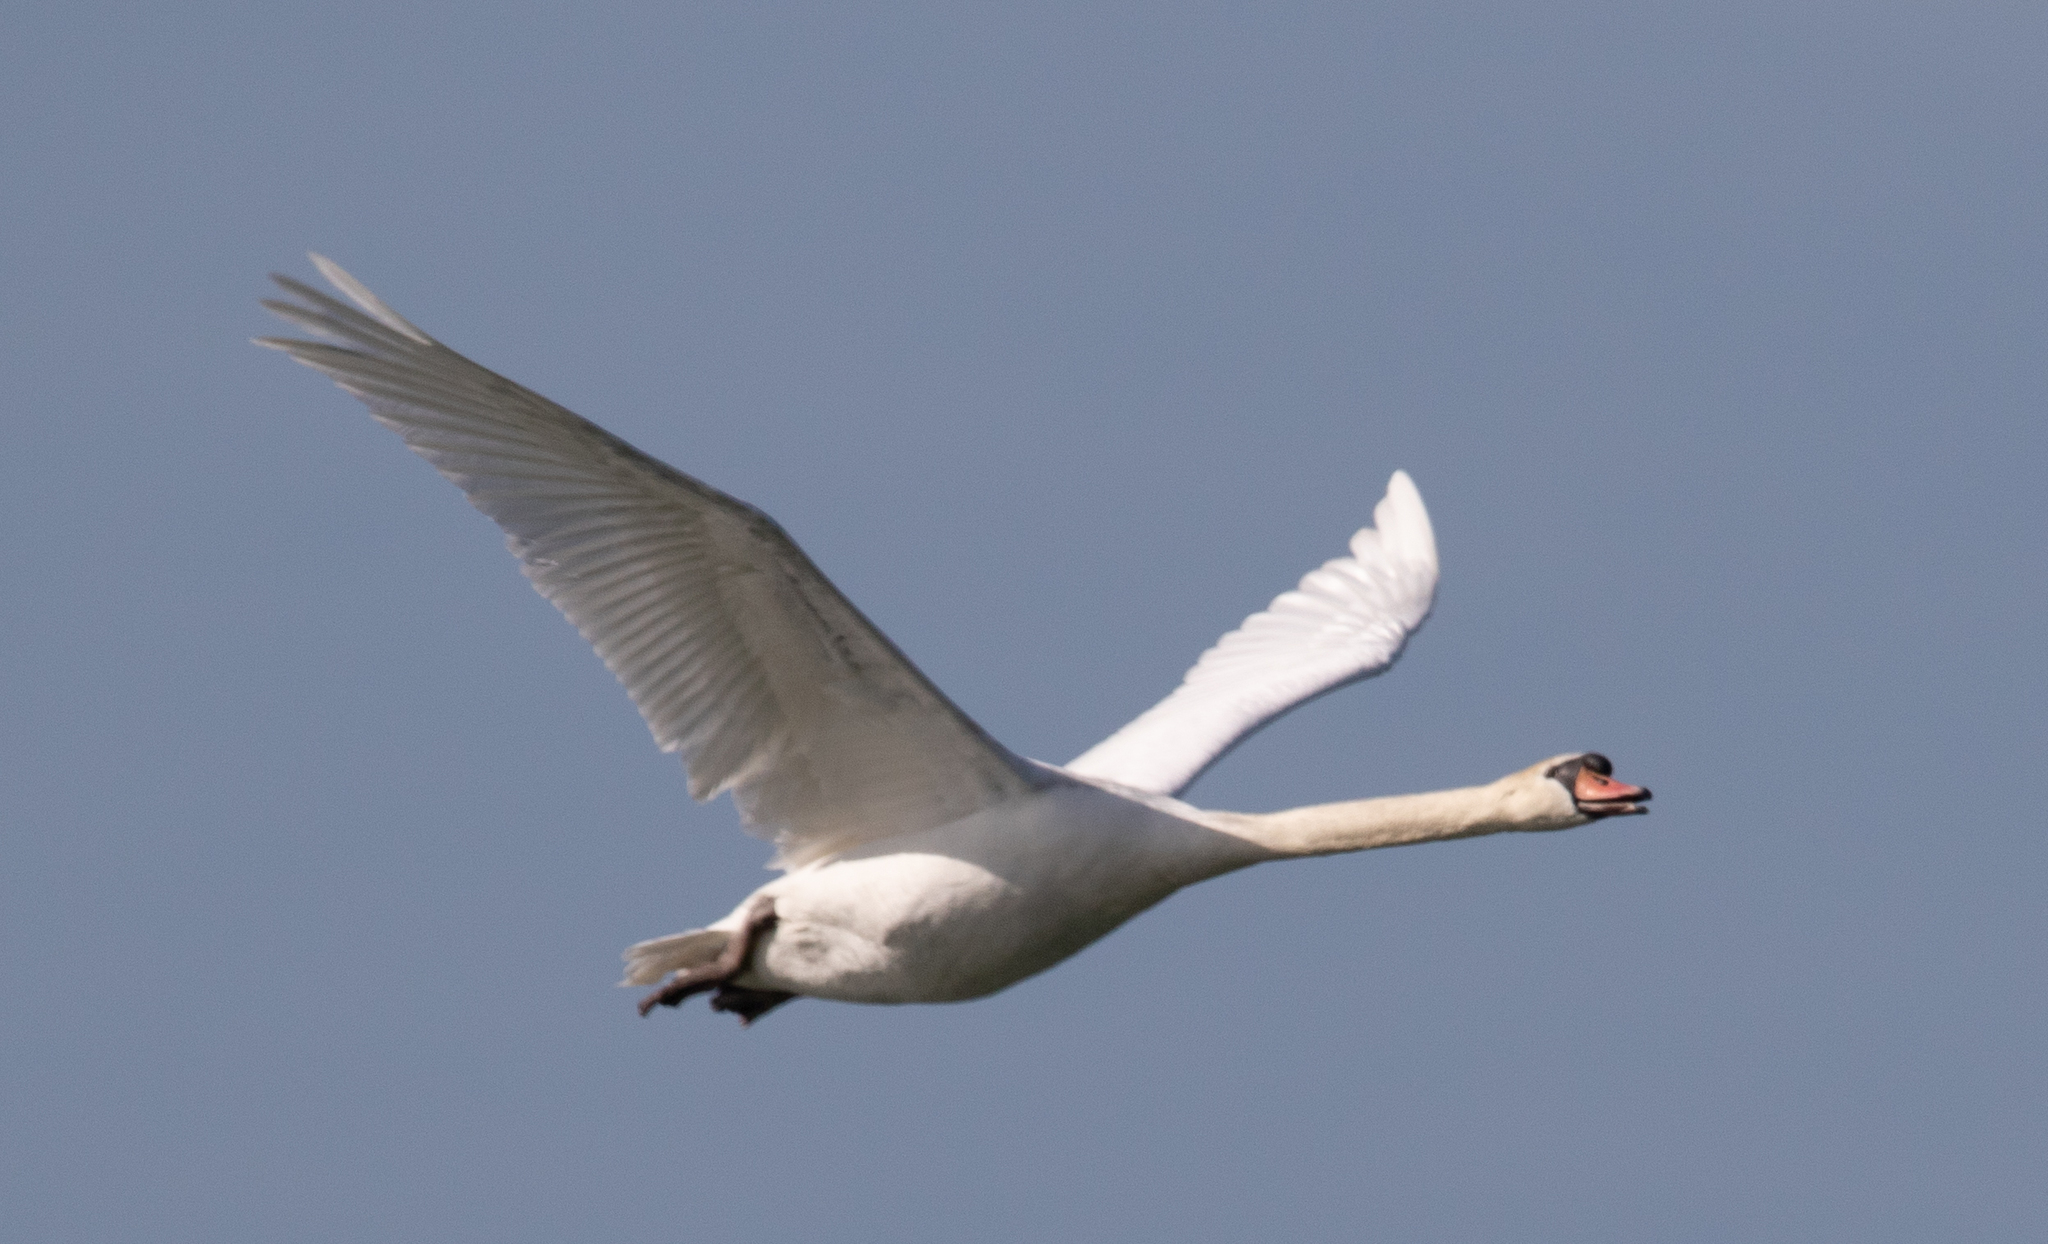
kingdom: Animalia
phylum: Chordata
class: Aves
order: Anseriformes
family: Anatidae
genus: Cygnus
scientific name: Cygnus olor
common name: Mute swan
